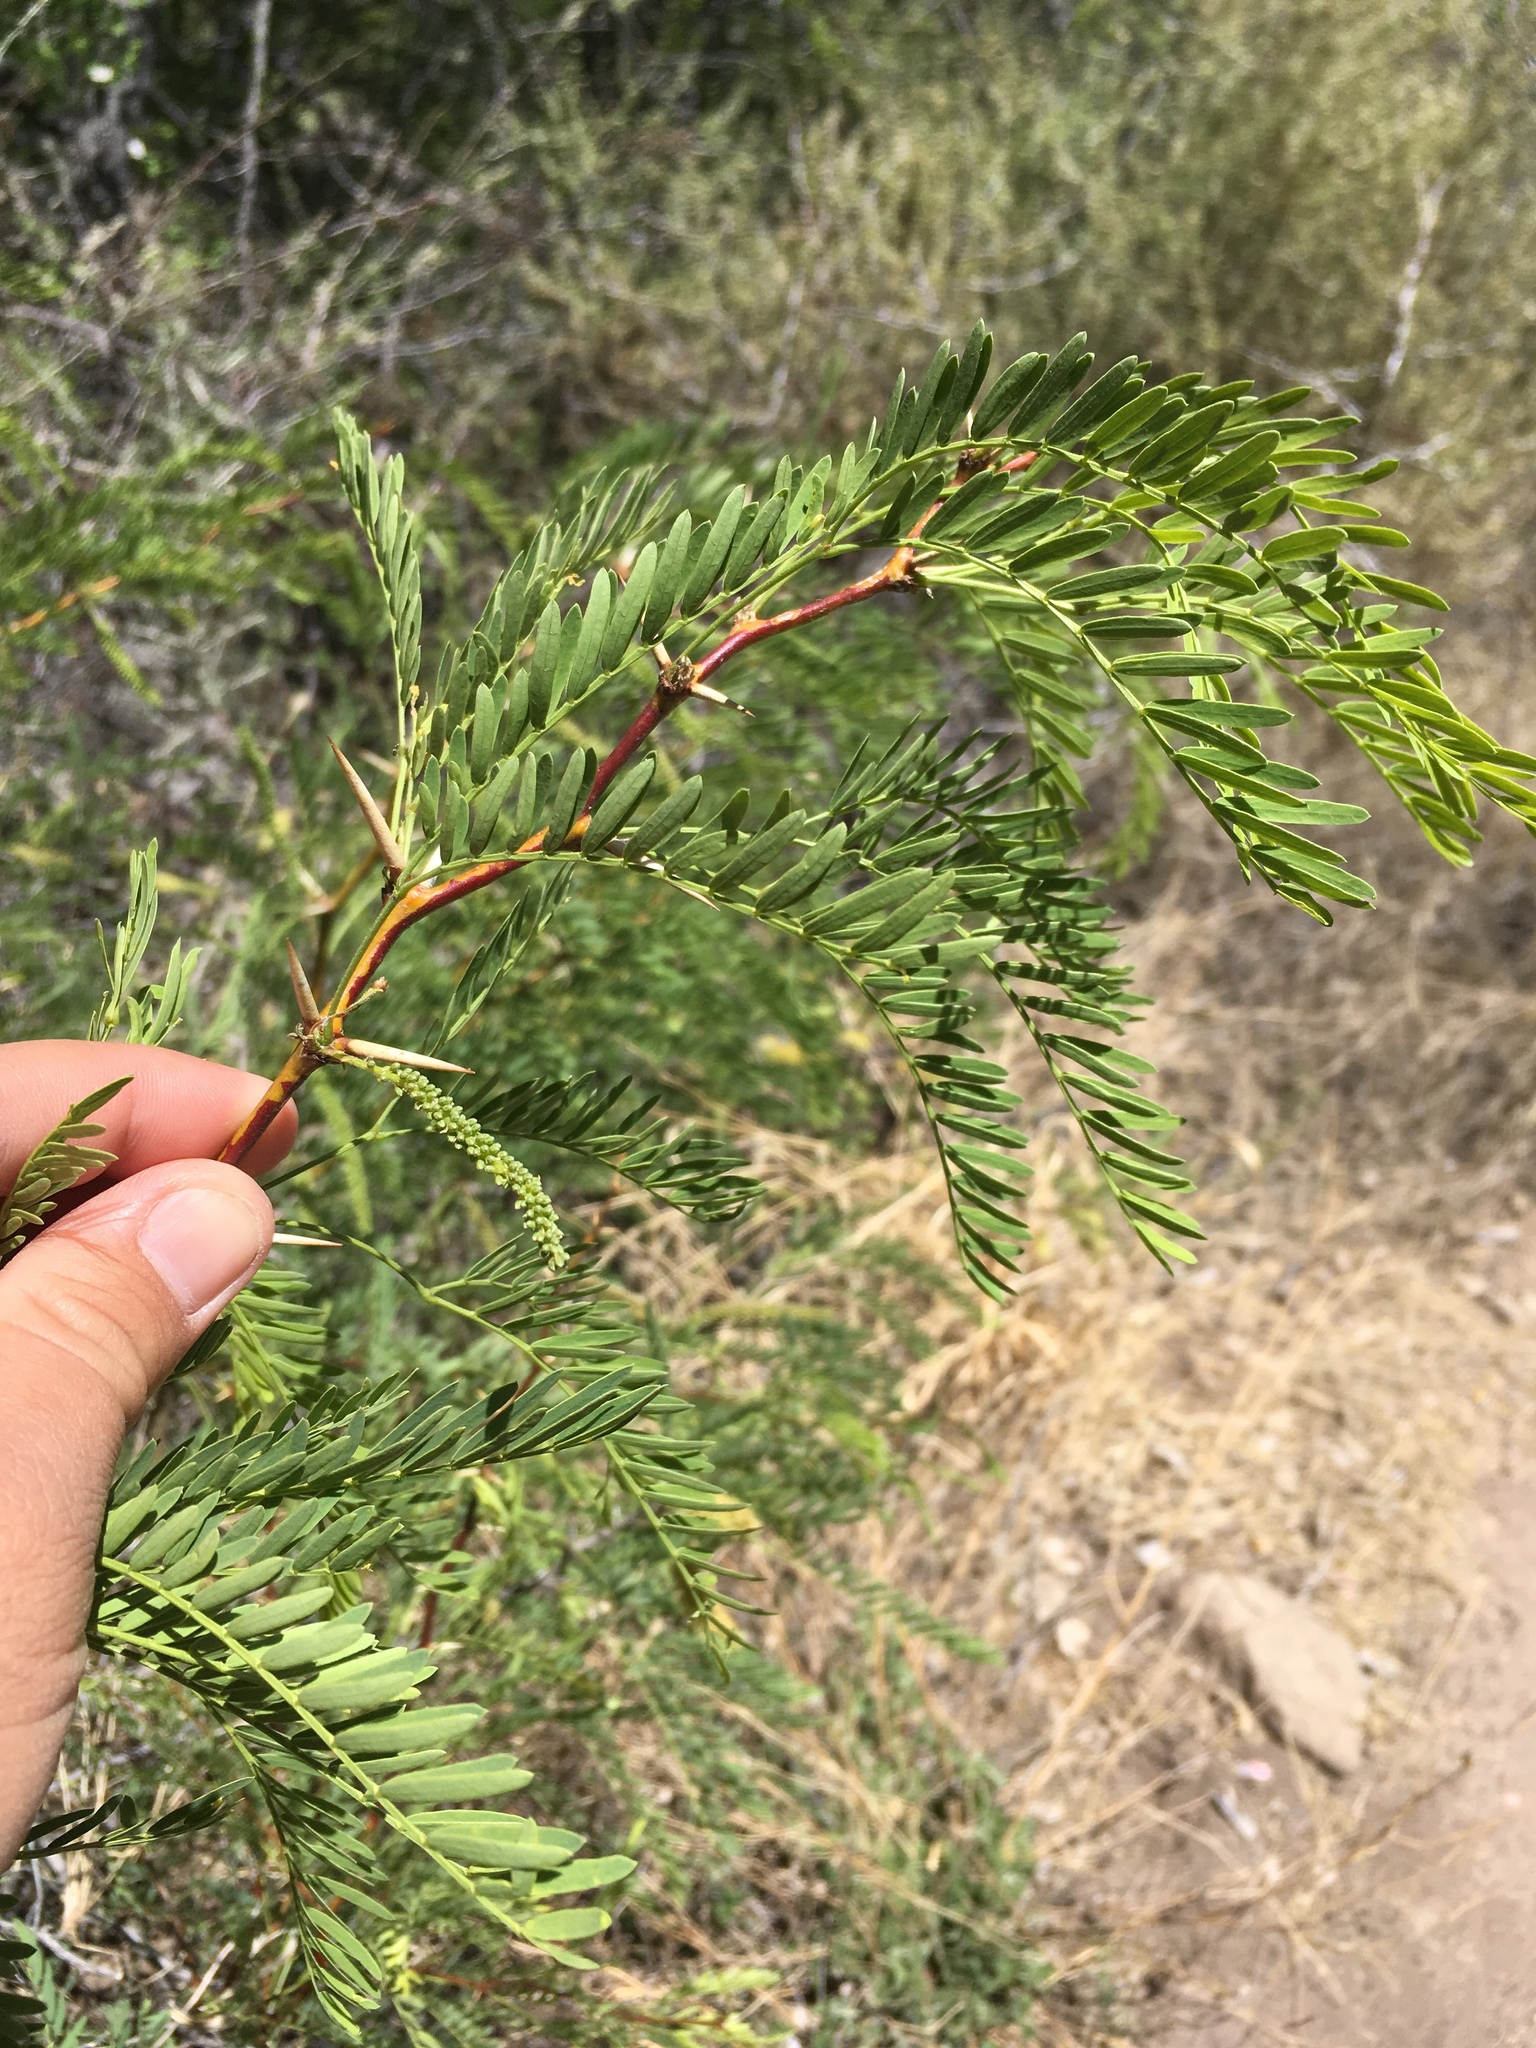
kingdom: Plantae
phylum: Tracheophyta
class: Magnoliopsida
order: Fabales
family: Fabaceae
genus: Prosopis
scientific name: Prosopis glandulosa
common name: Honey mesquite
